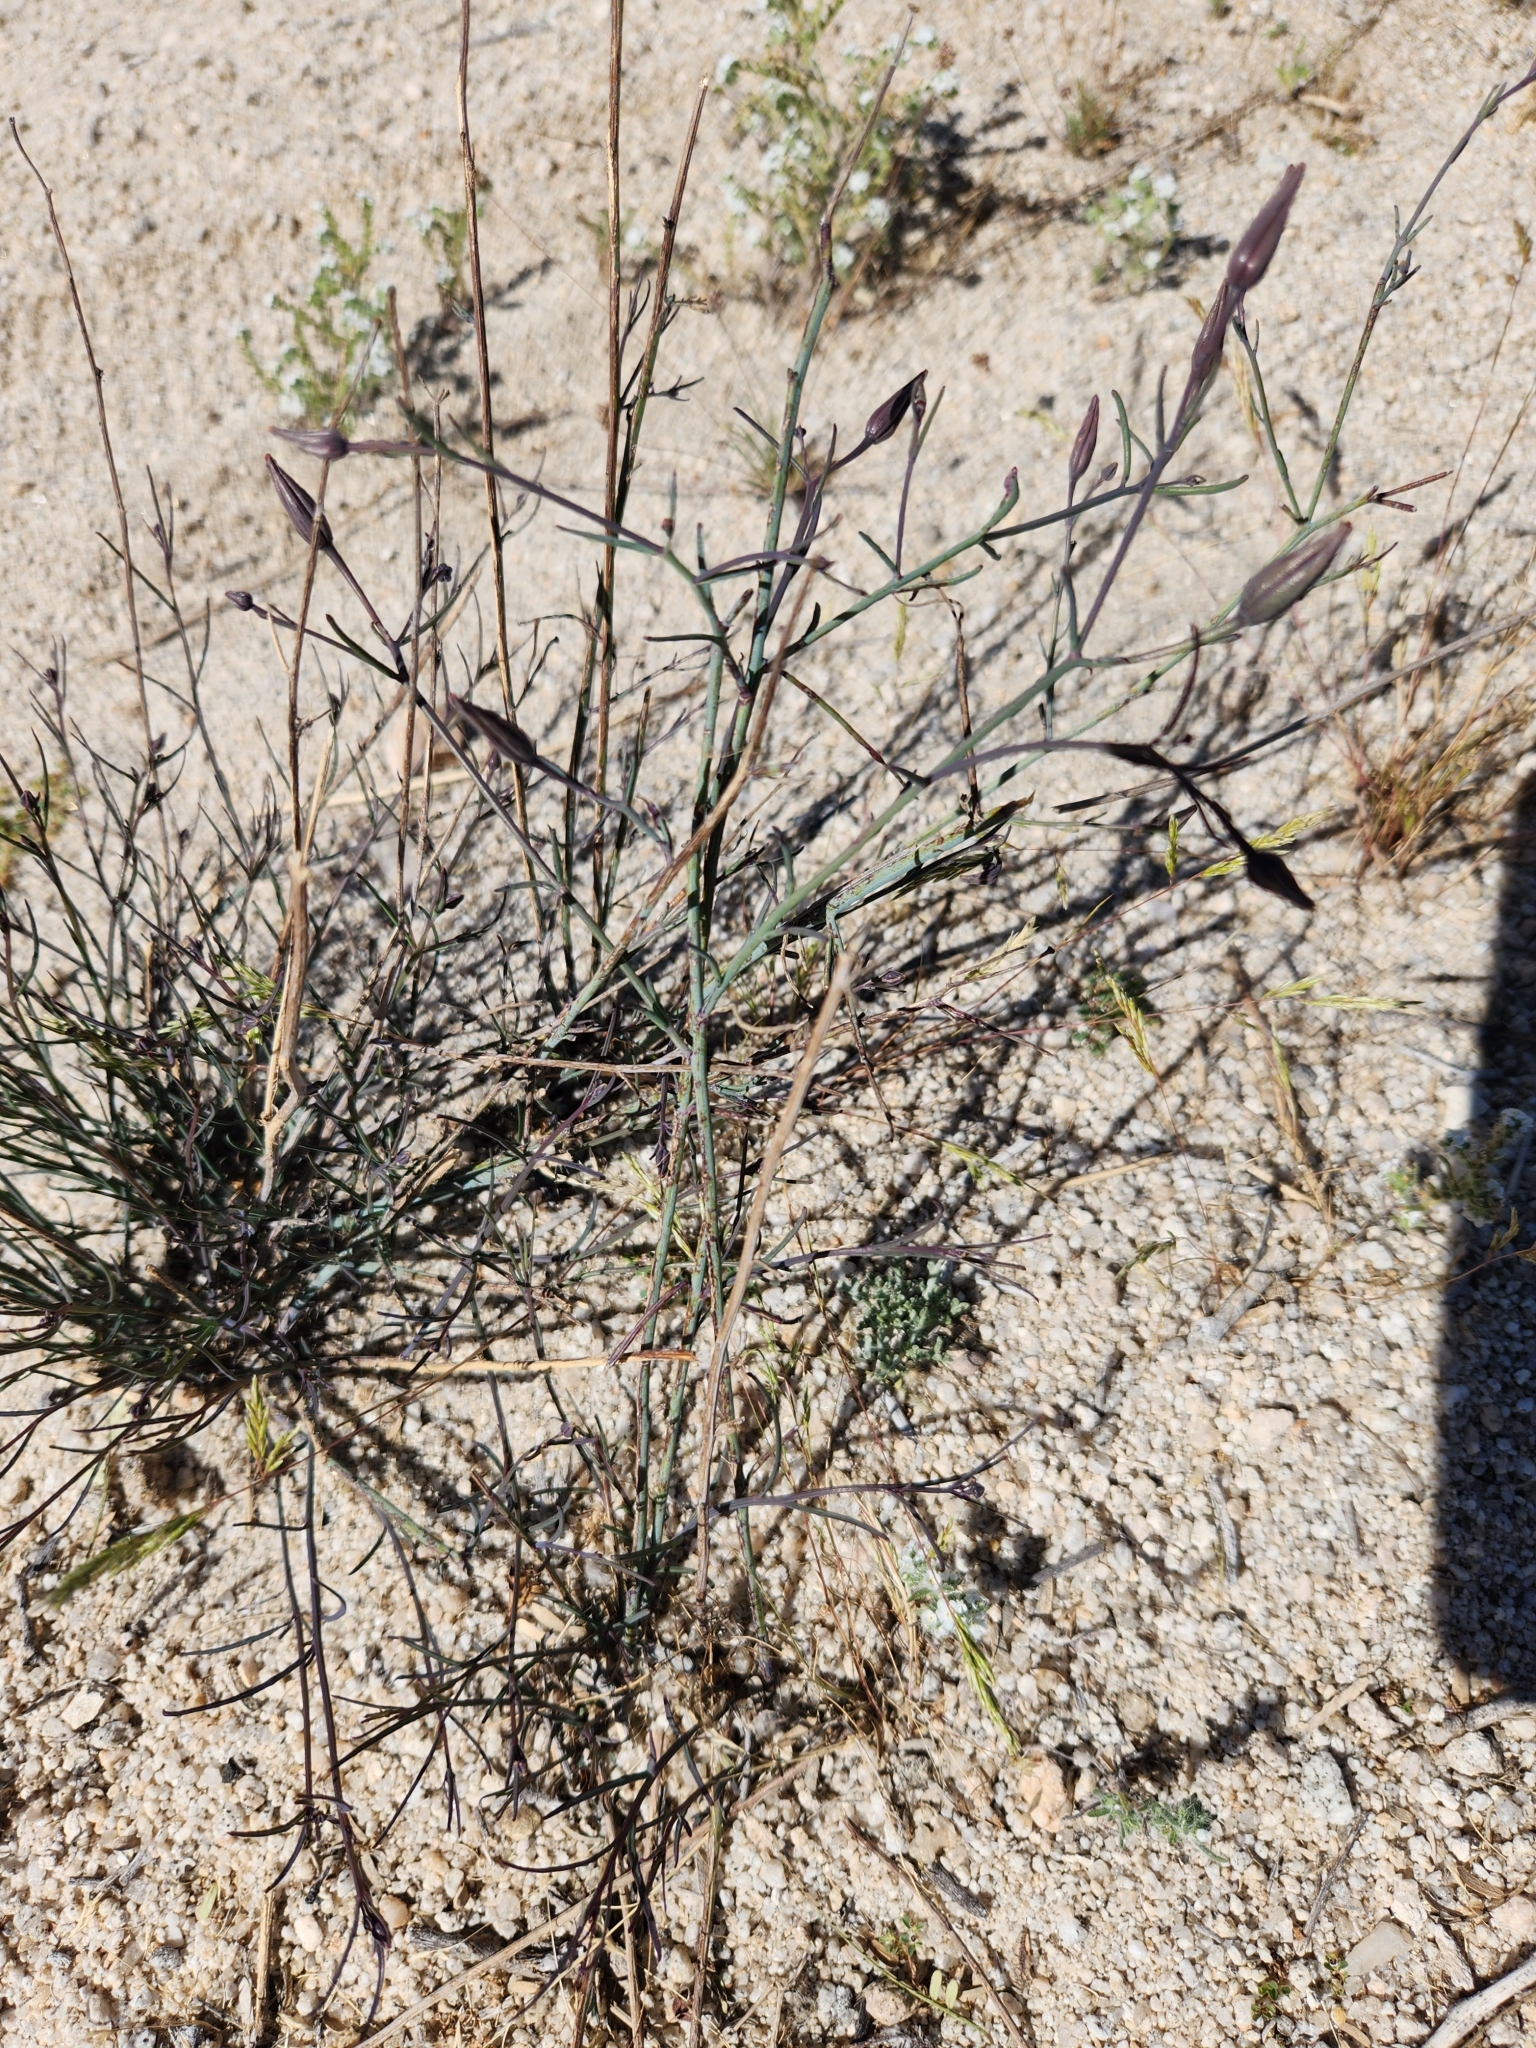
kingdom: Plantae
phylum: Tracheophyta
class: Magnoliopsida
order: Asterales
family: Asteraceae
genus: Porophyllum
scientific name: Porophyllum gracile
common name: Odora
